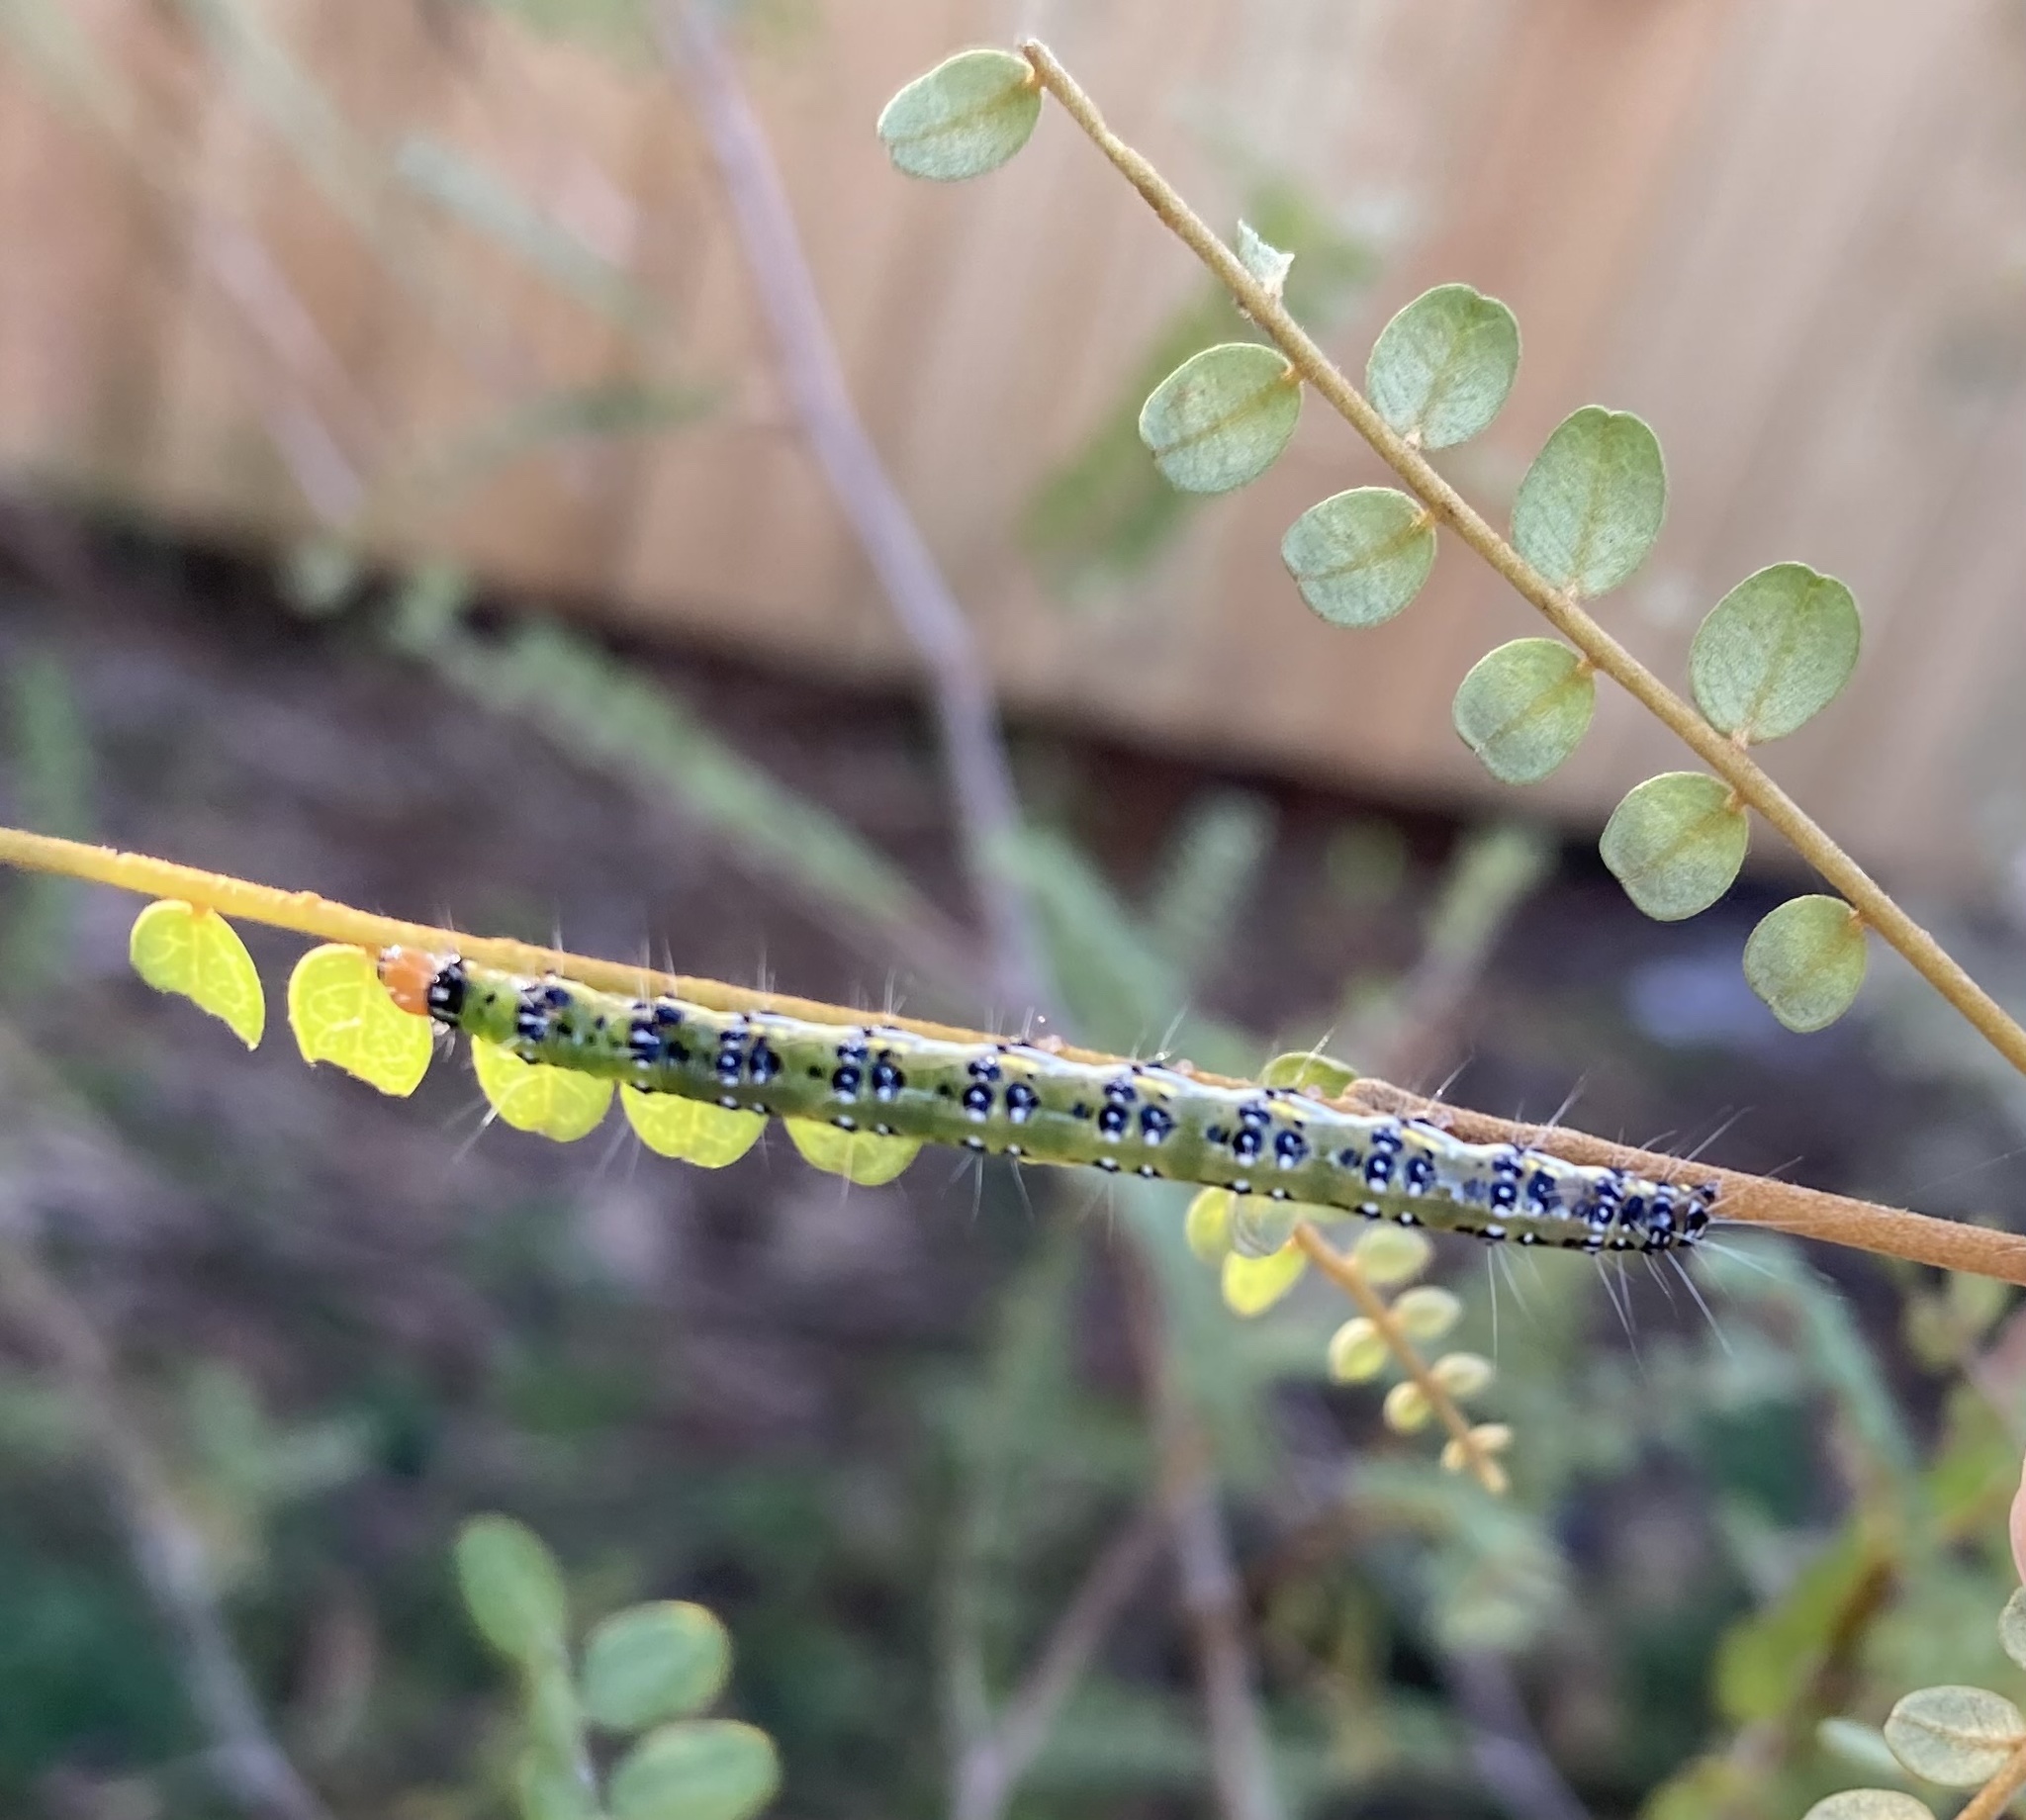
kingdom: Animalia
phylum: Arthropoda
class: Insecta
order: Lepidoptera
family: Crambidae
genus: Uresiphita
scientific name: Uresiphita
